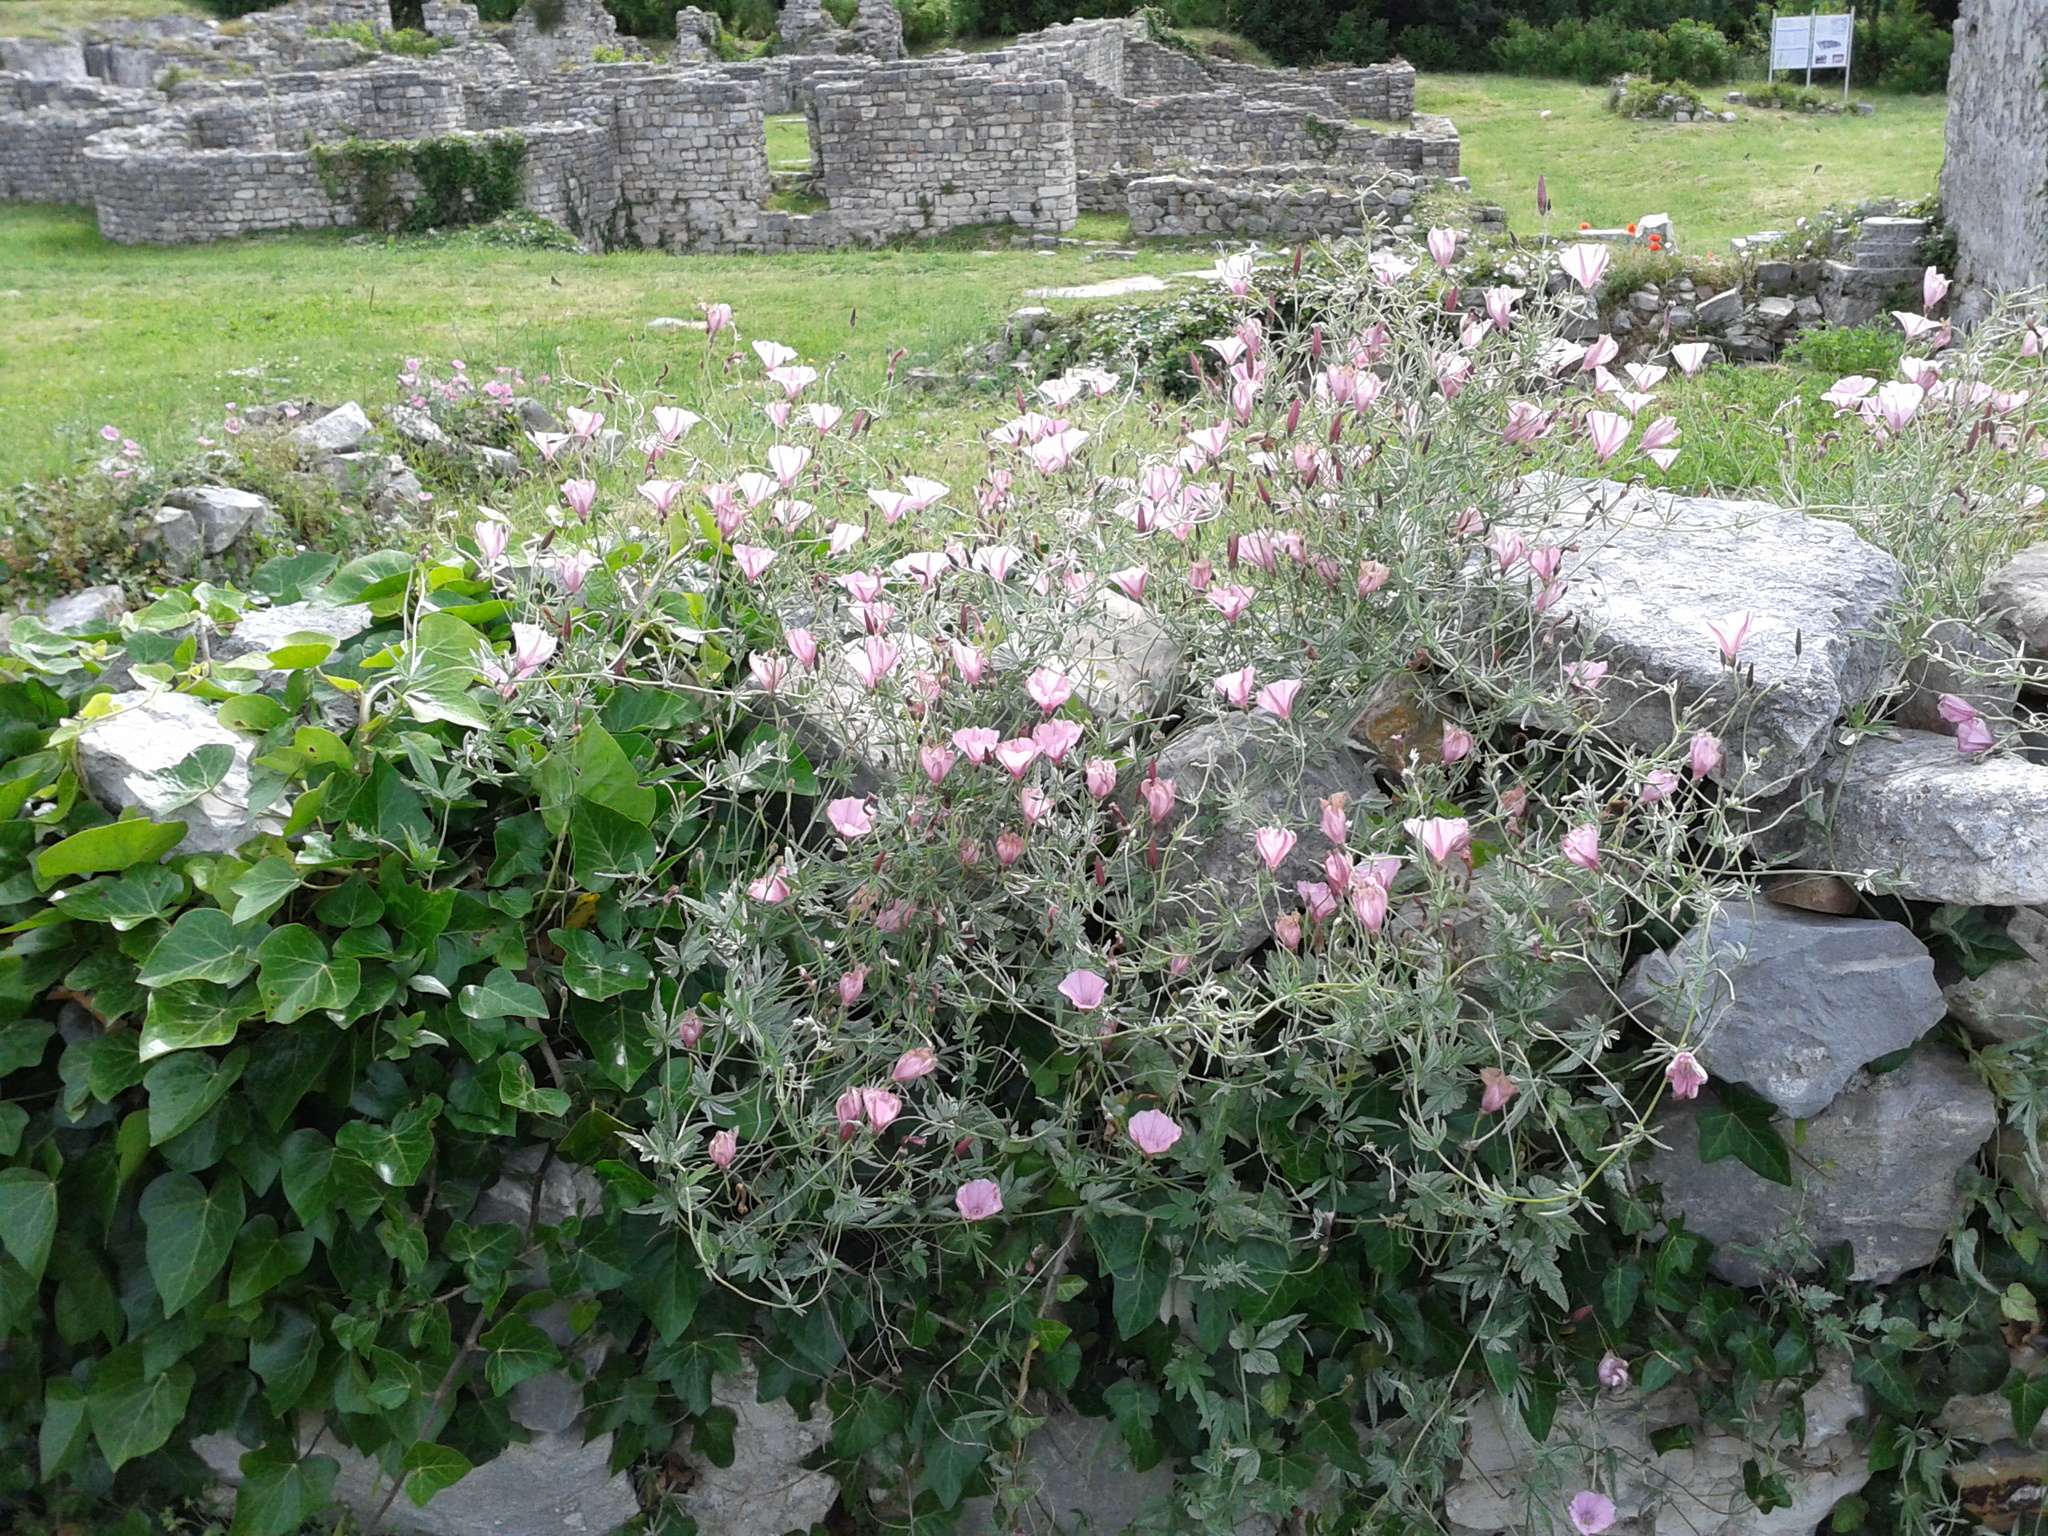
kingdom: Plantae
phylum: Tracheophyta
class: Magnoliopsida
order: Solanales
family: Convolvulaceae
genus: Convolvulus
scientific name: Convolvulus elegantissimus
